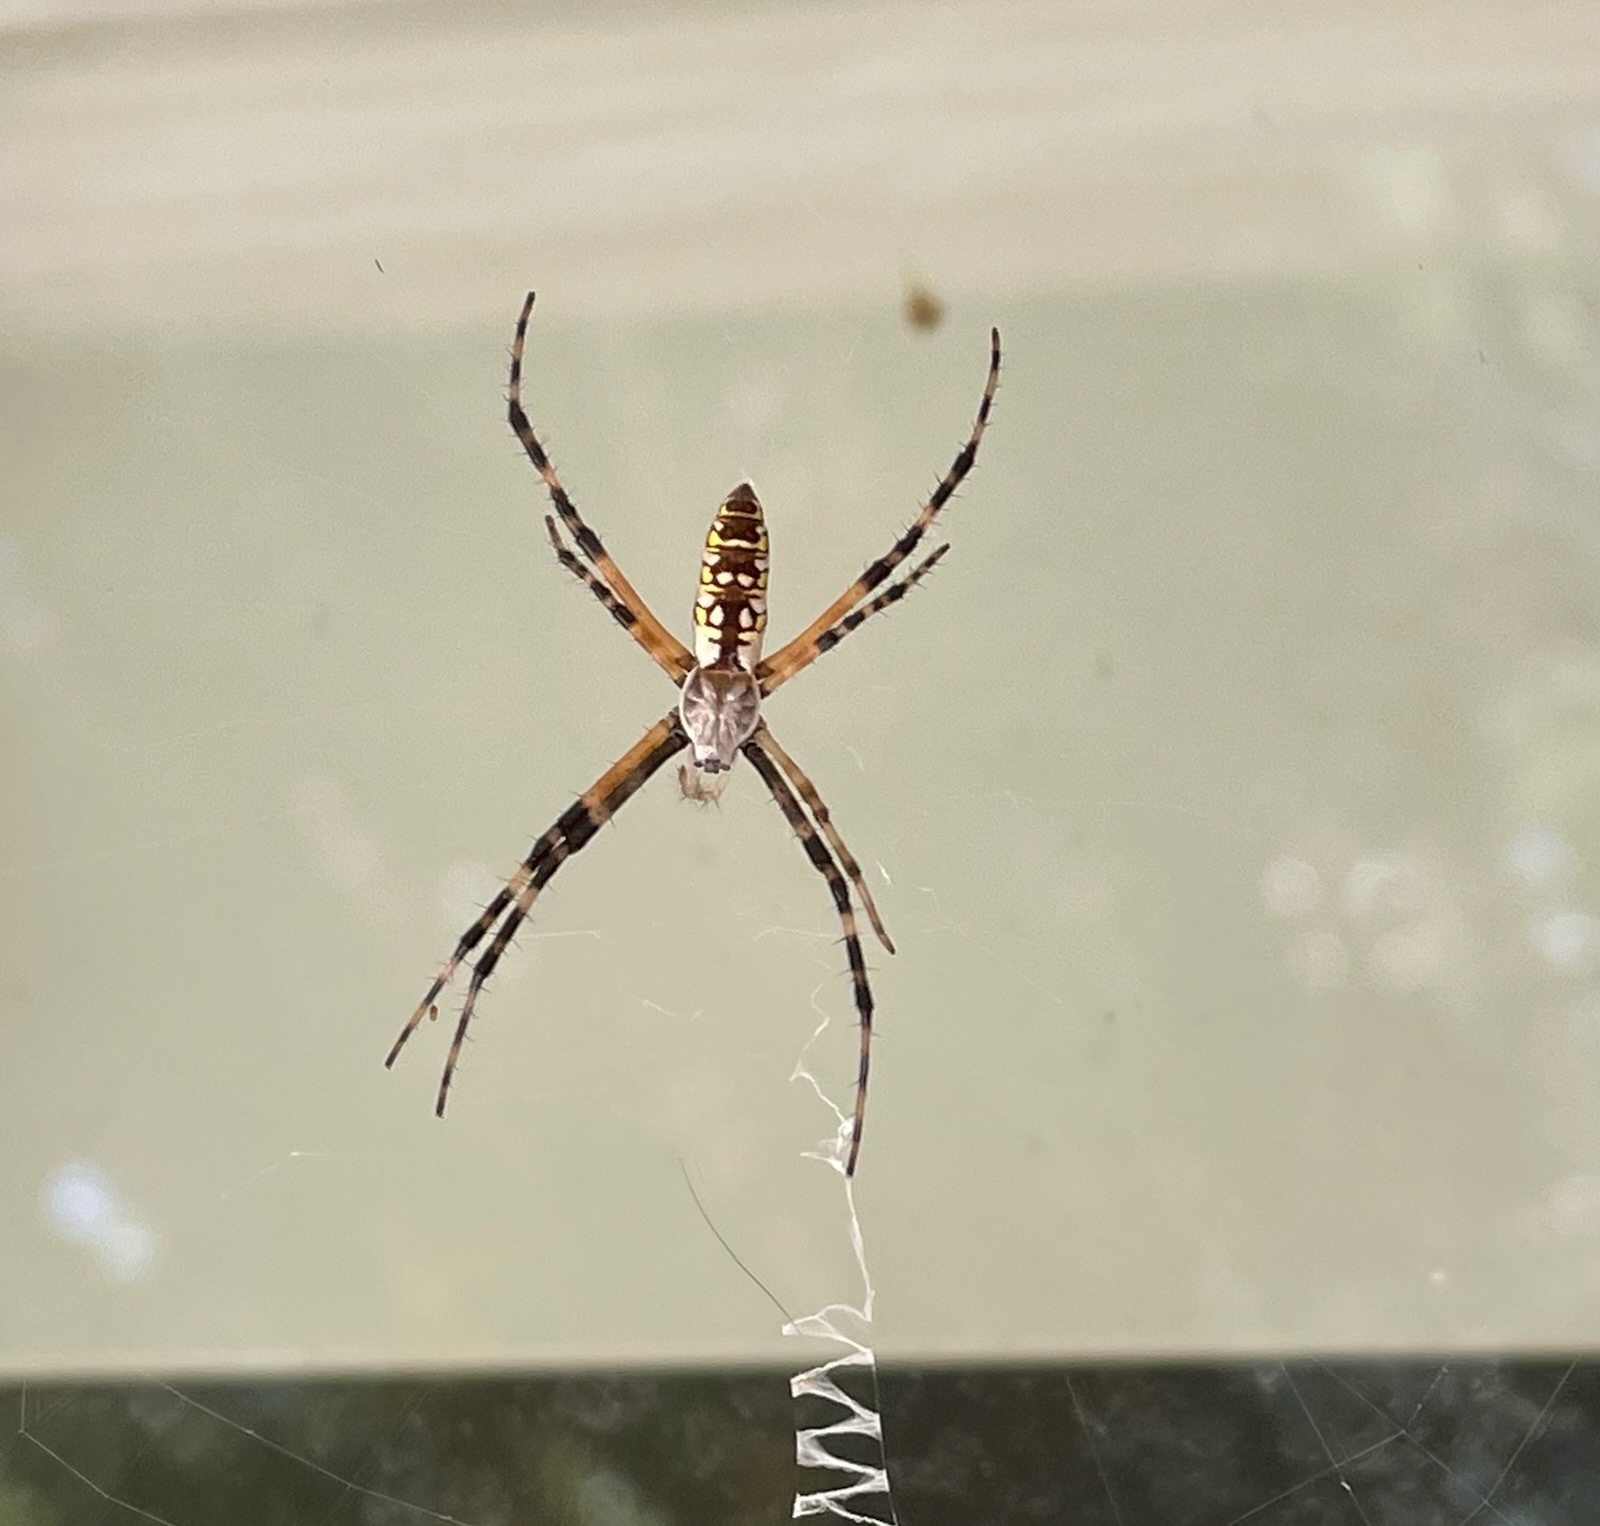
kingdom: Animalia
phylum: Arthropoda
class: Arachnida
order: Araneae
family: Araneidae
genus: Argiope
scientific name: Argiope aurantia
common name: Orb weavers
